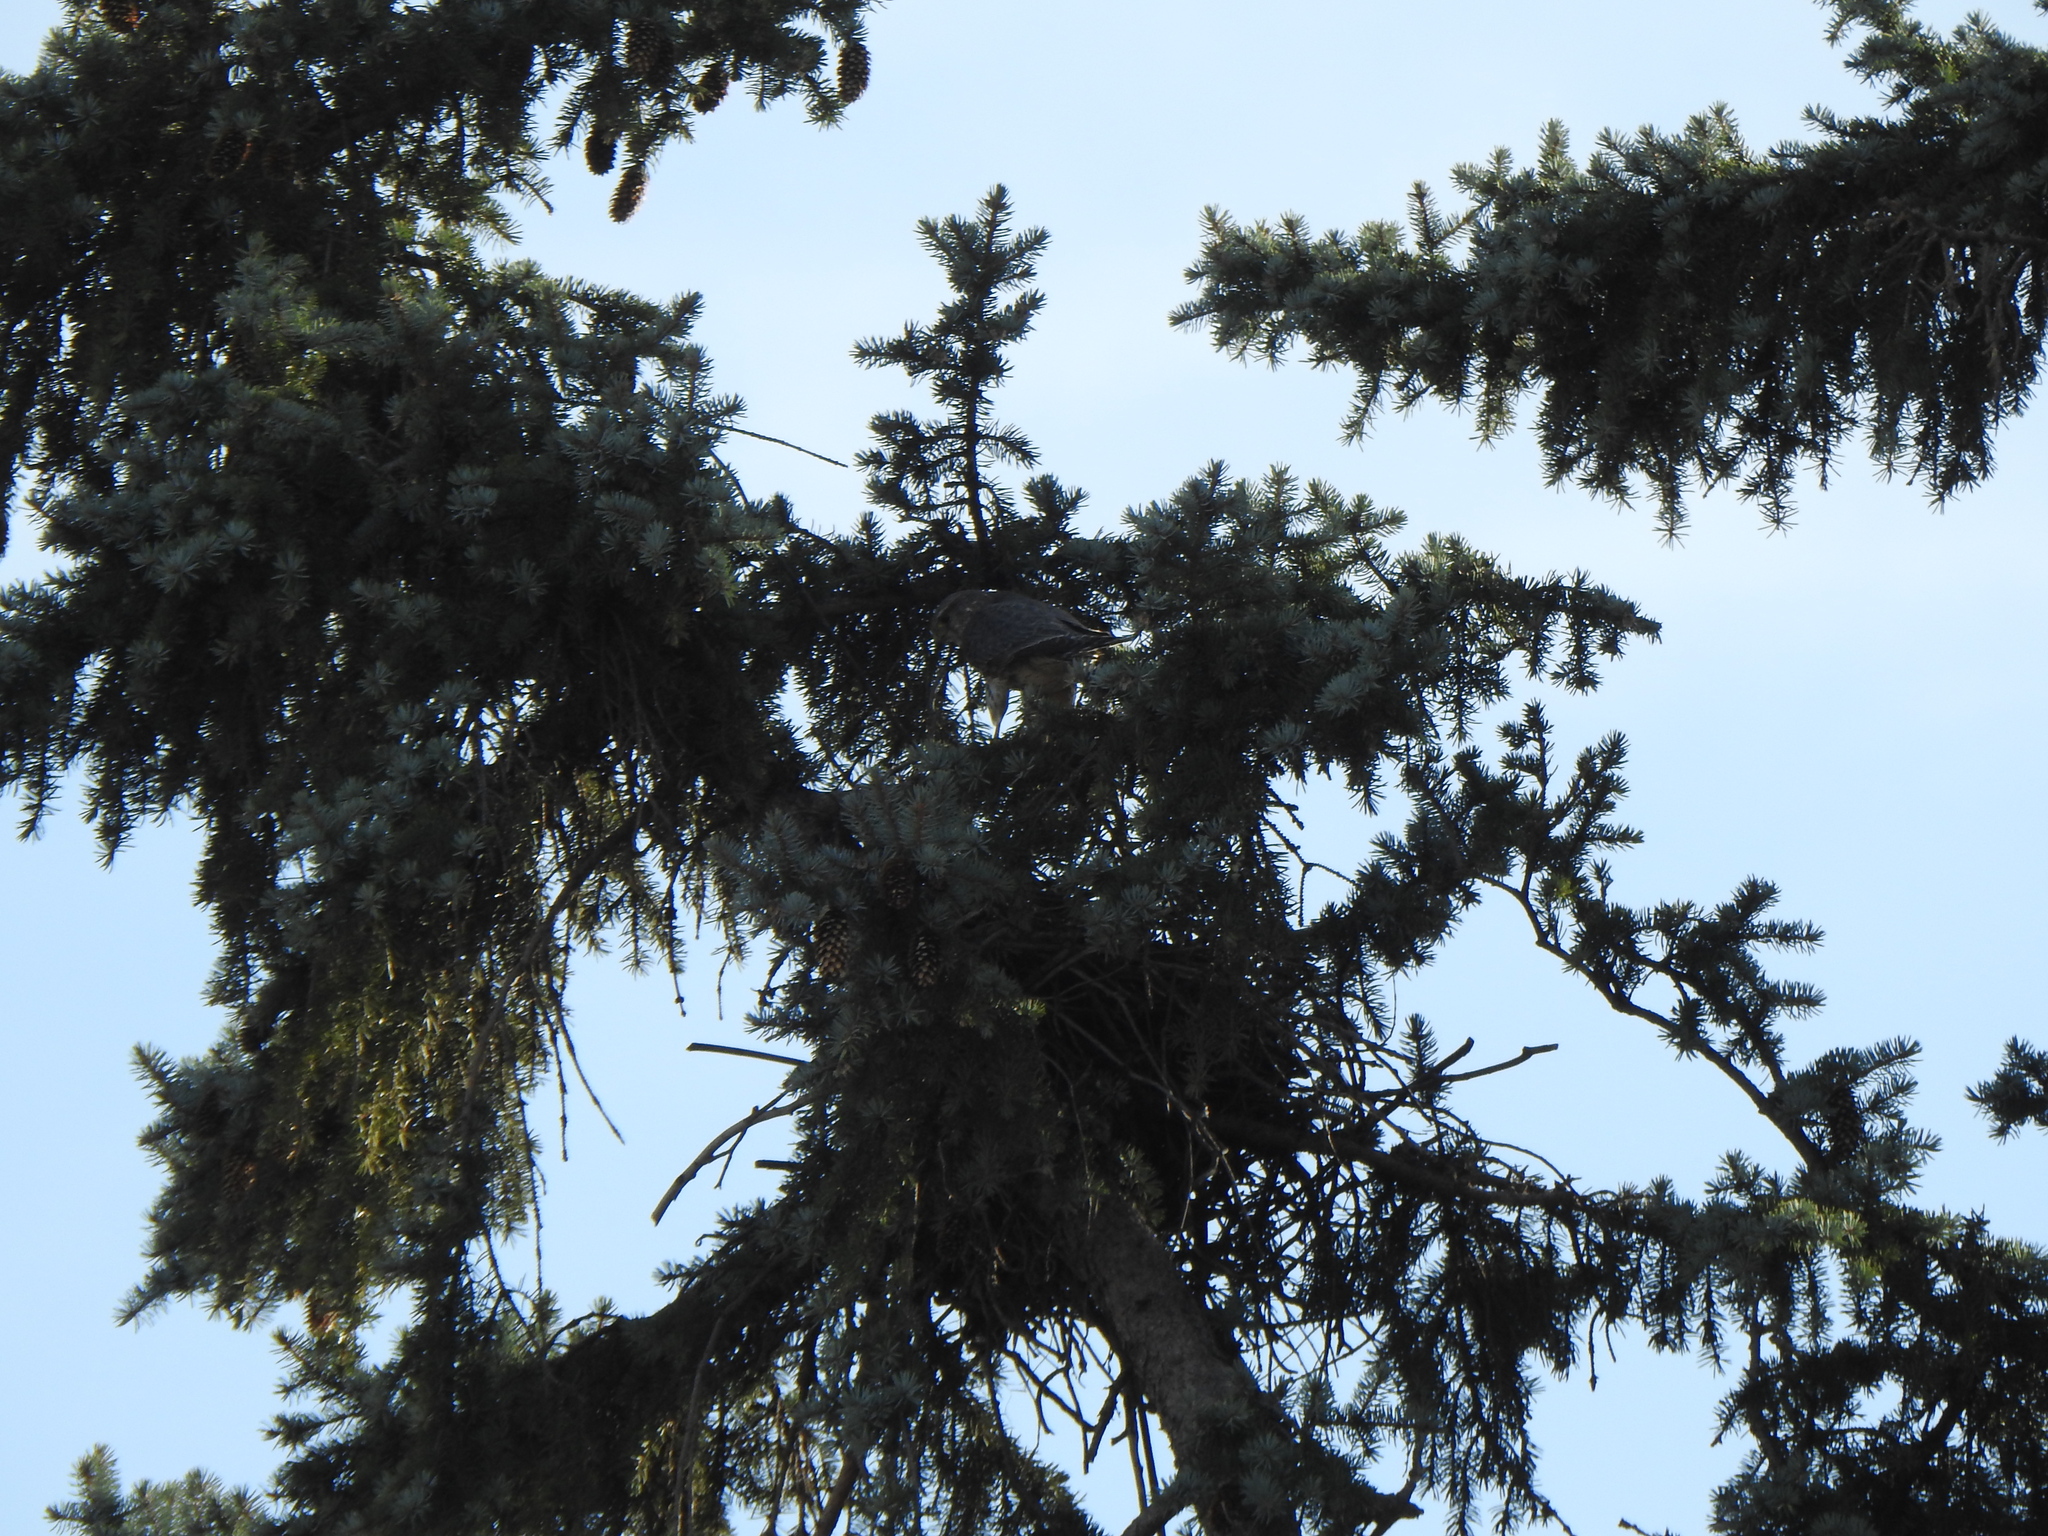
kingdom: Animalia
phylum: Chordata
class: Aves
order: Falconiformes
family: Falconidae
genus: Falco
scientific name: Falco columbarius
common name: Merlin
